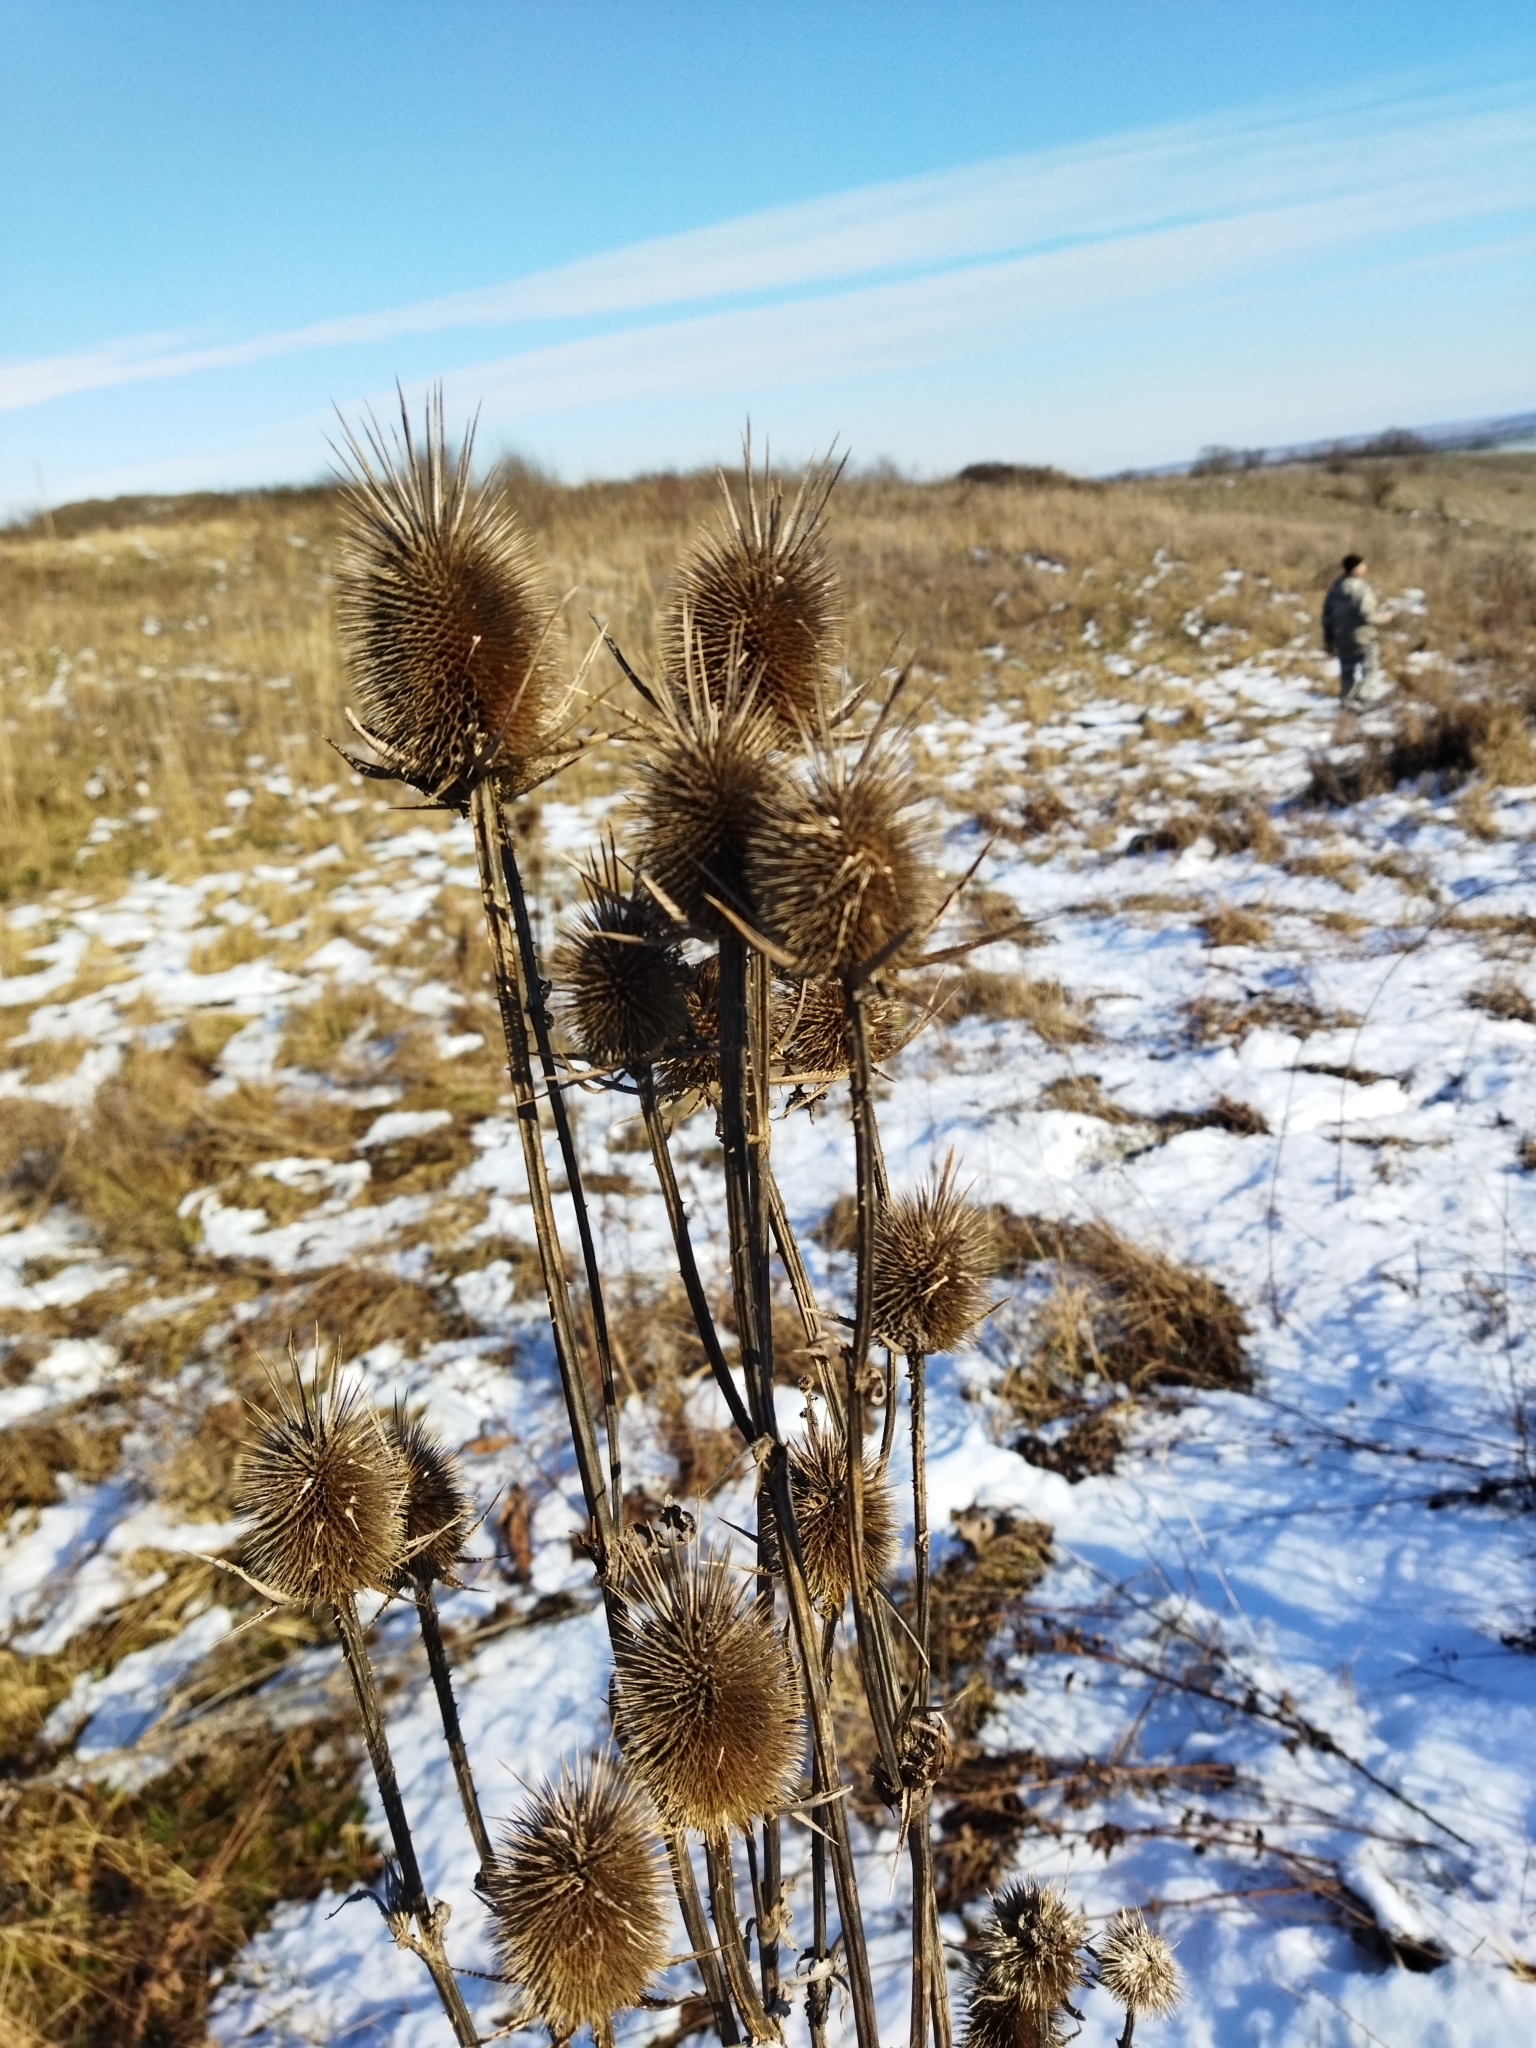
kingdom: Plantae
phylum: Tracheophyta
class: Magnoliopsida
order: Dipsacales
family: Caprifoliaceae
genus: Dipsacus
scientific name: Dipsacus laciniatus
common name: Cut-leaved teasel
